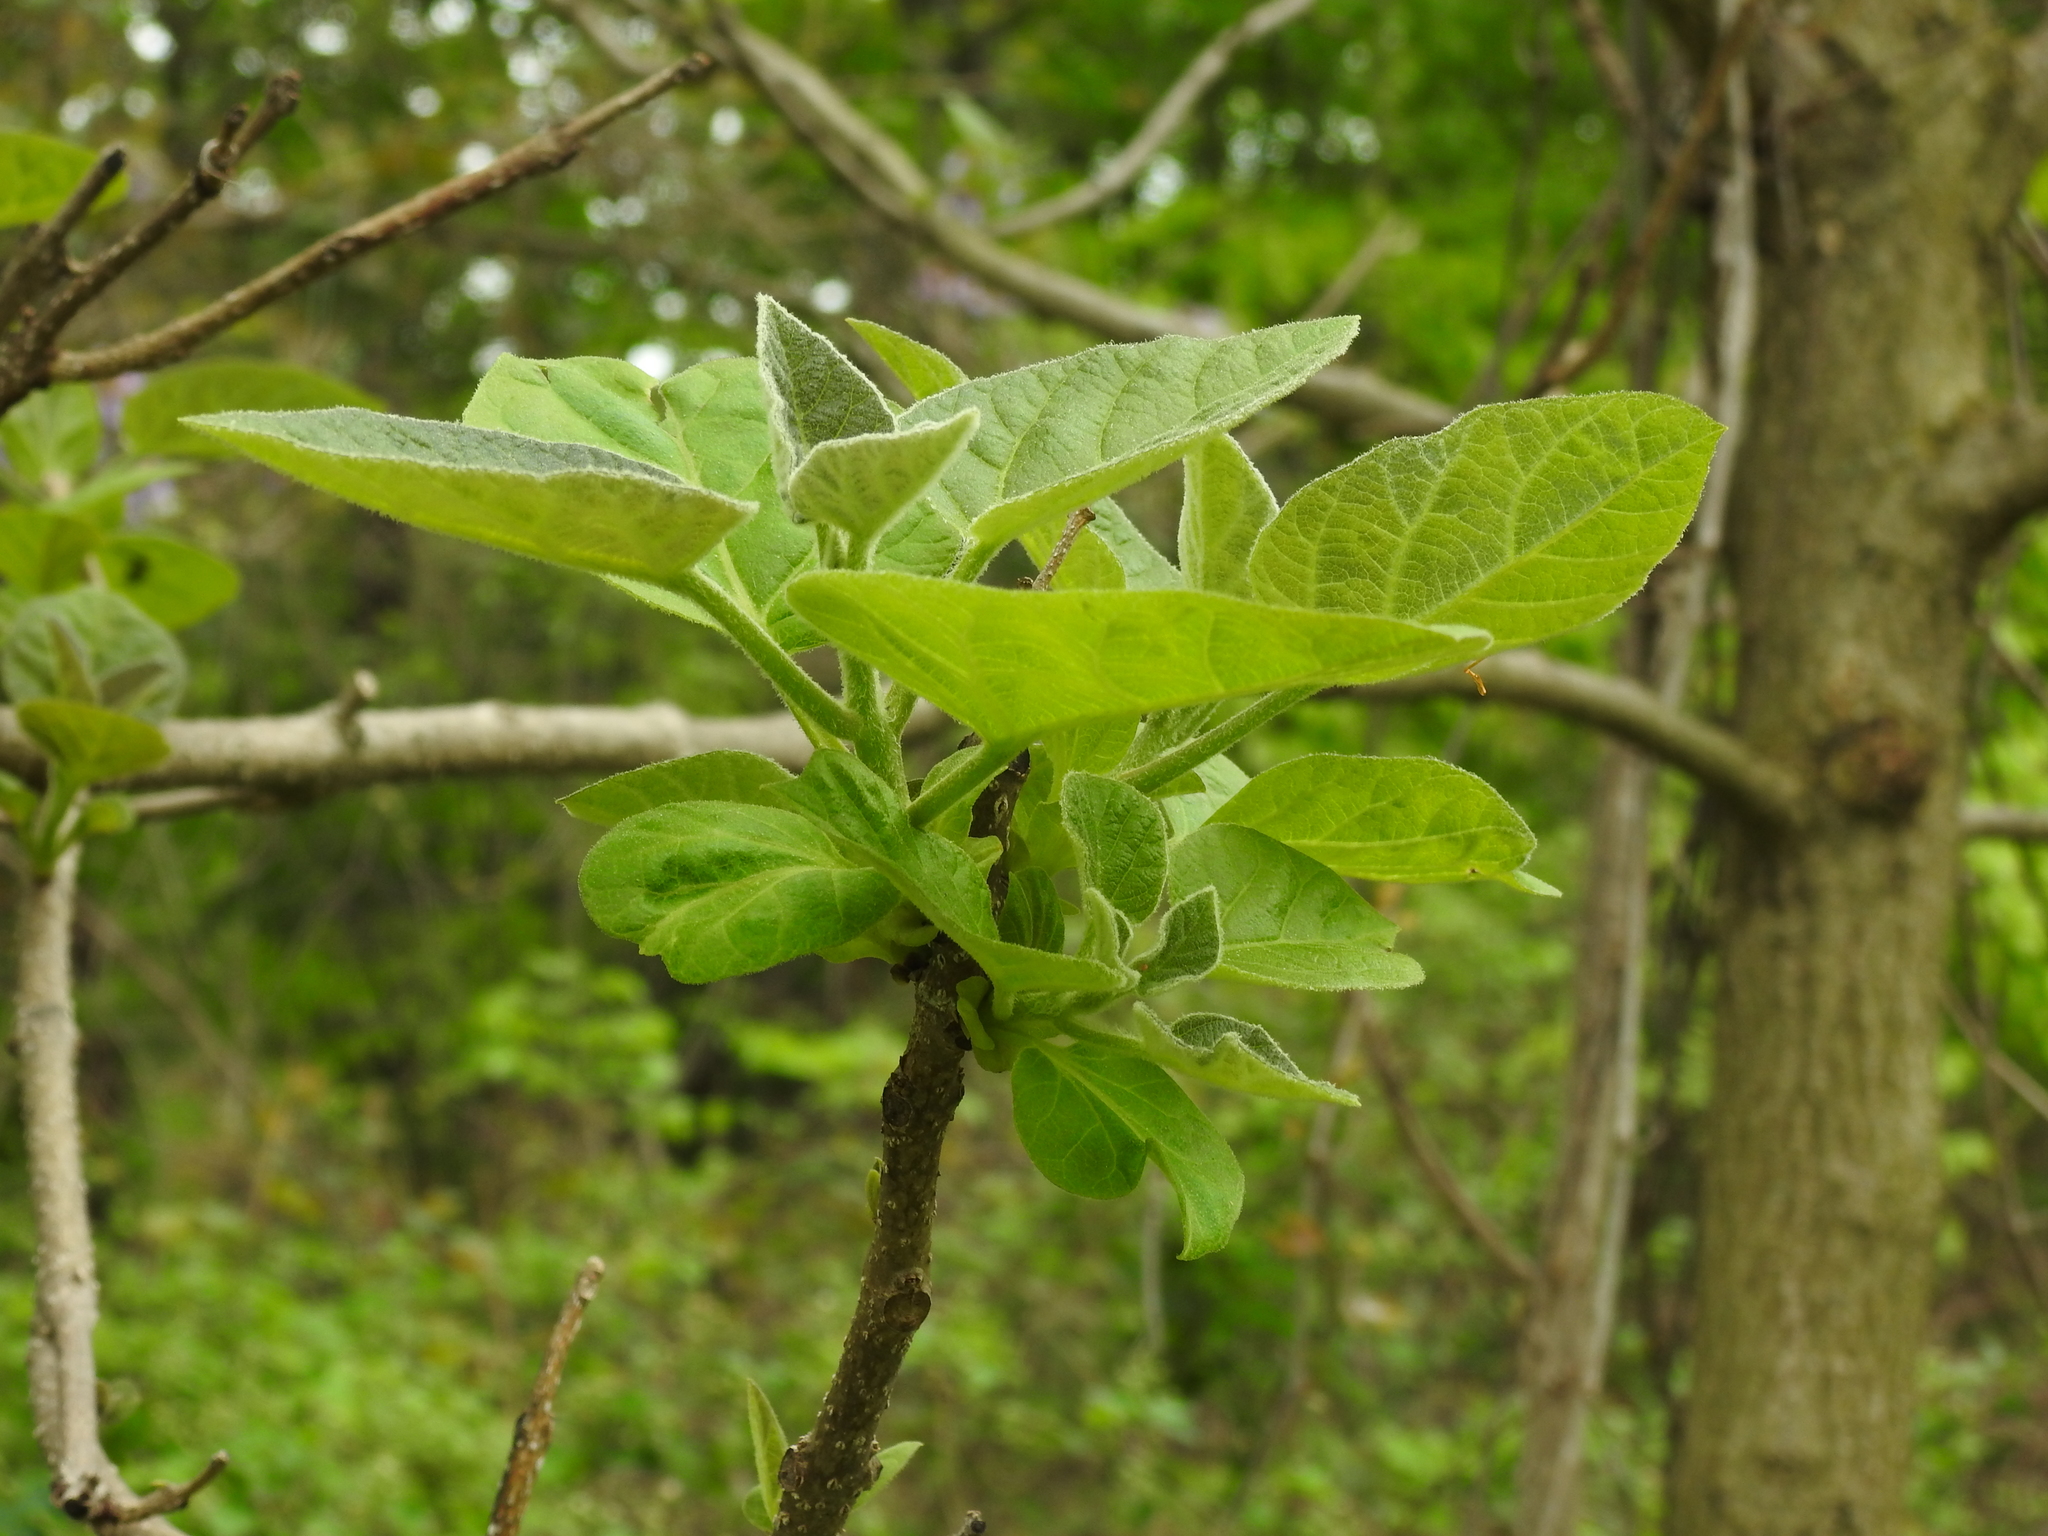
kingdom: Plantae
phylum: Tracheophyta
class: Magnoliopsida
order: Lamiales
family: Paulowniaceae
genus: Paulownia
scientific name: Paulownia tomentosa
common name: Foxglove-tree
